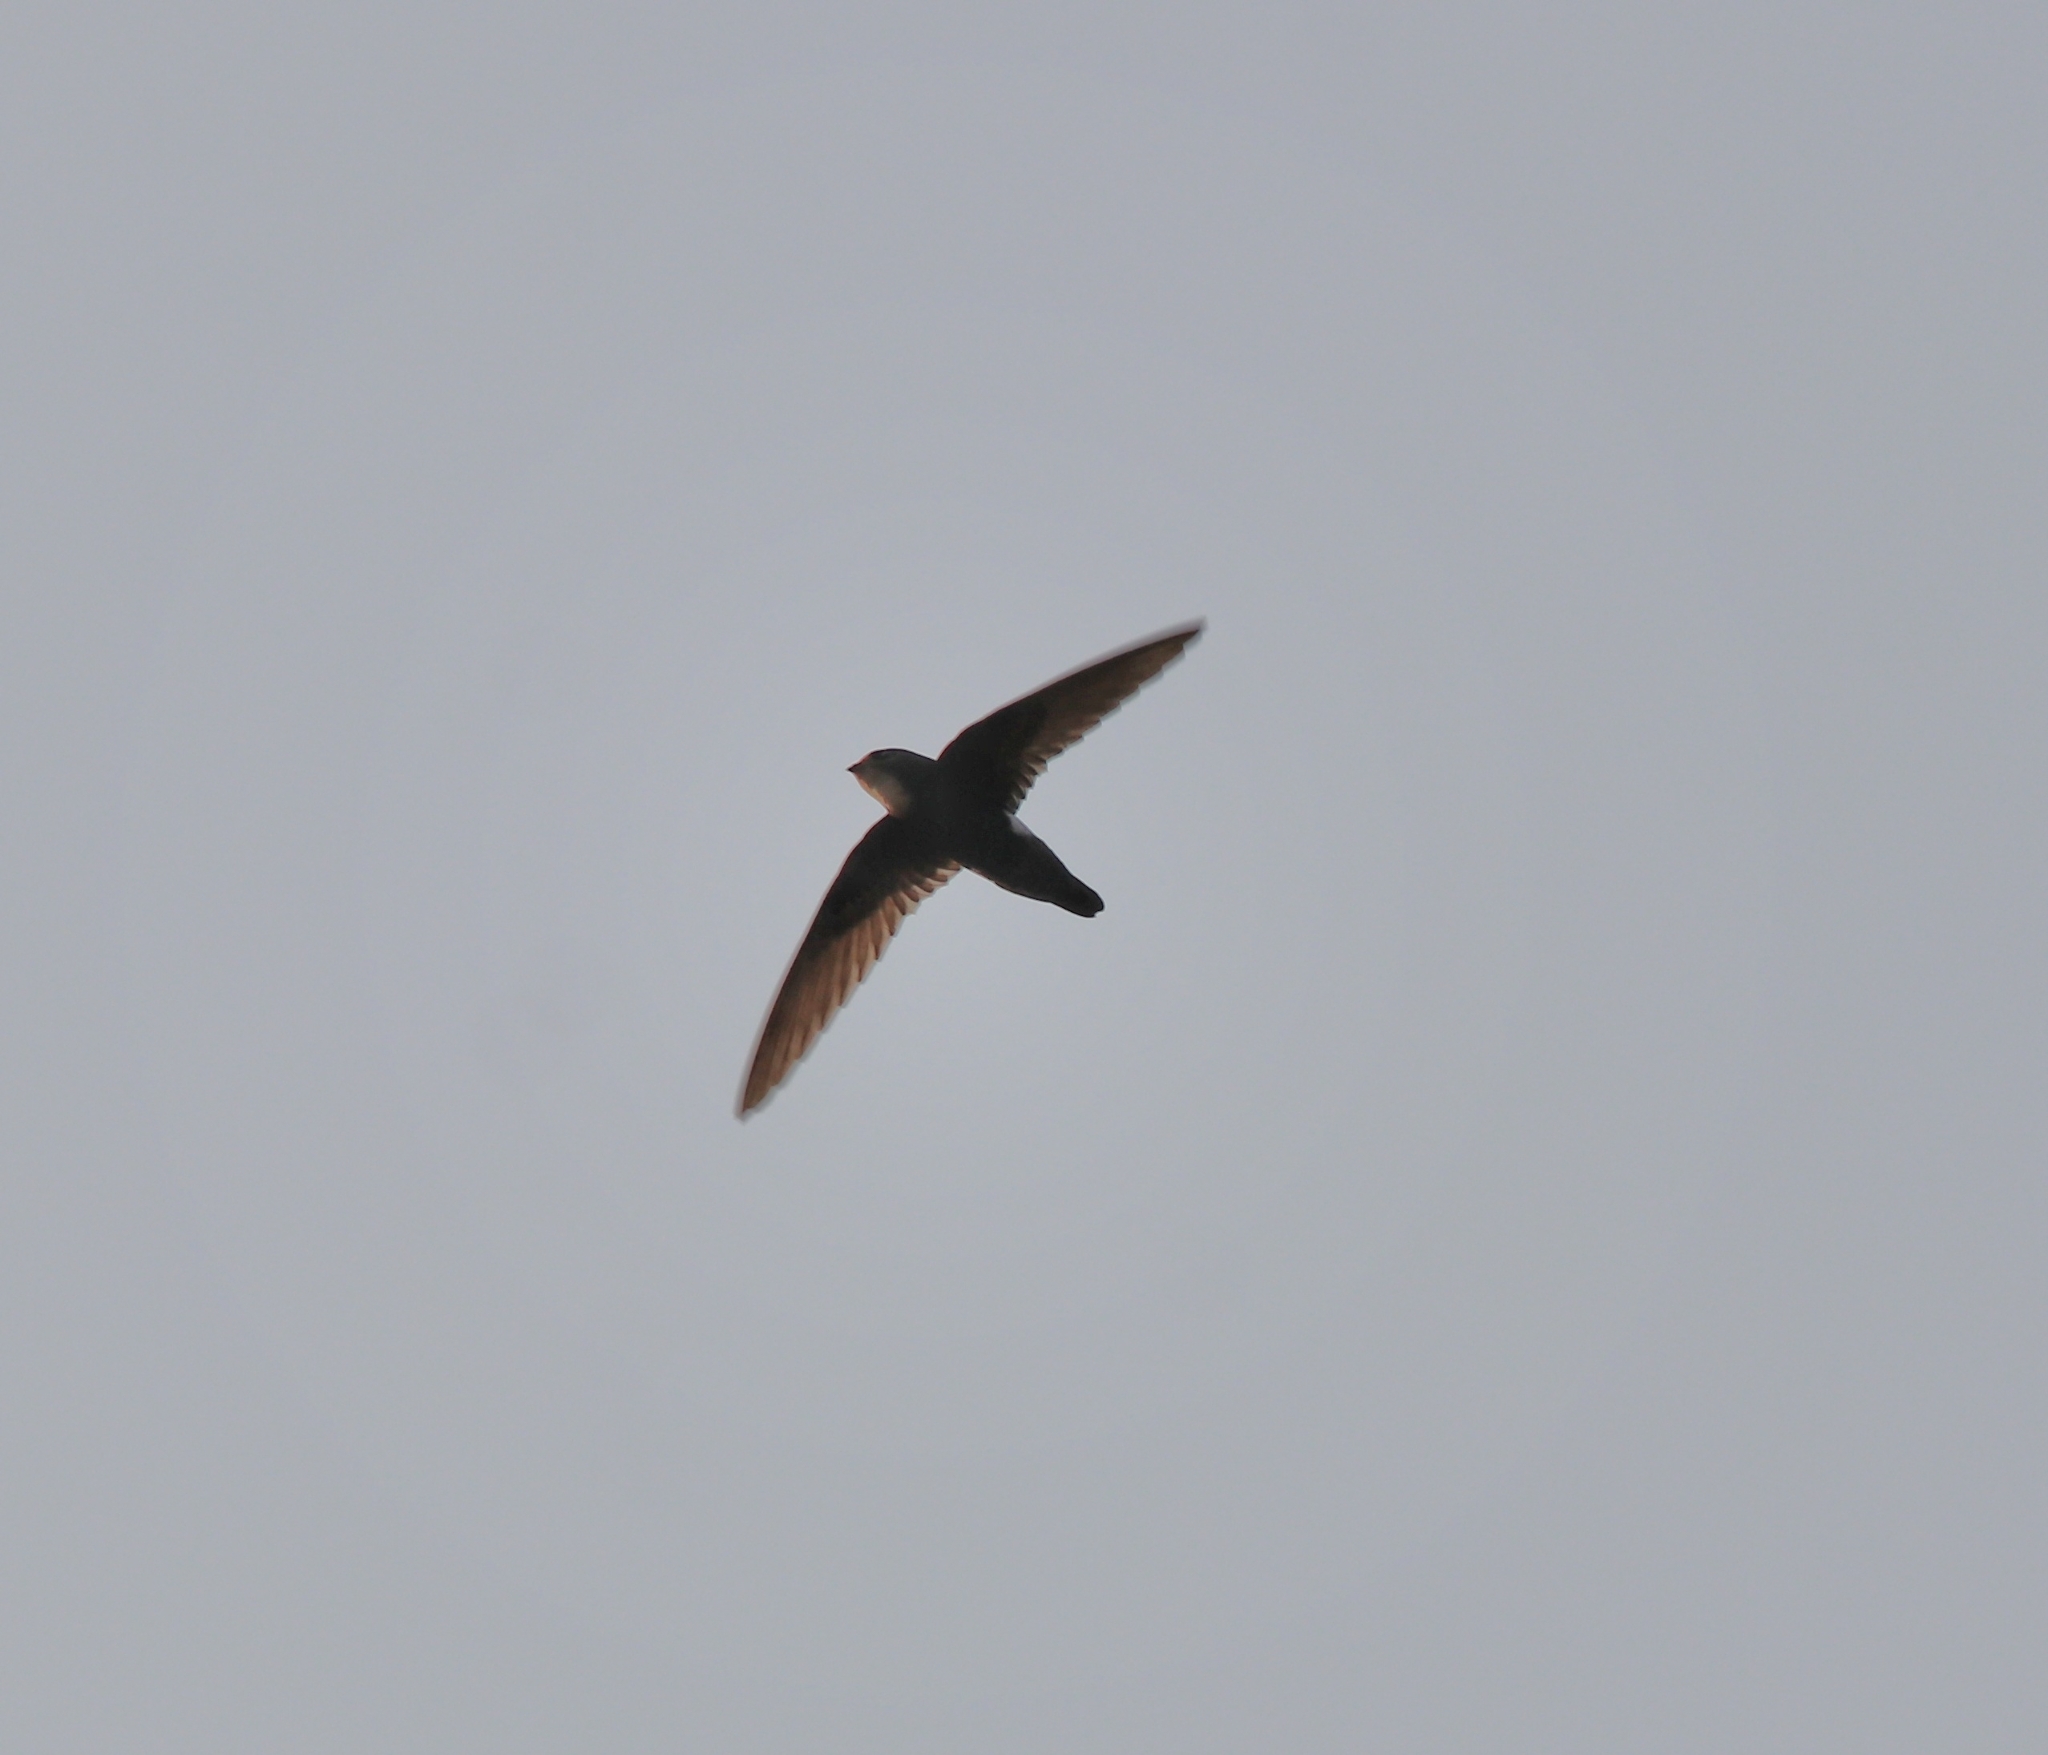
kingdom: Animalia
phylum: Chordata
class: Aves
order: Apodiformes
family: Apodidae
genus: Apus
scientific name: Apus affinis
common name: Little swift
